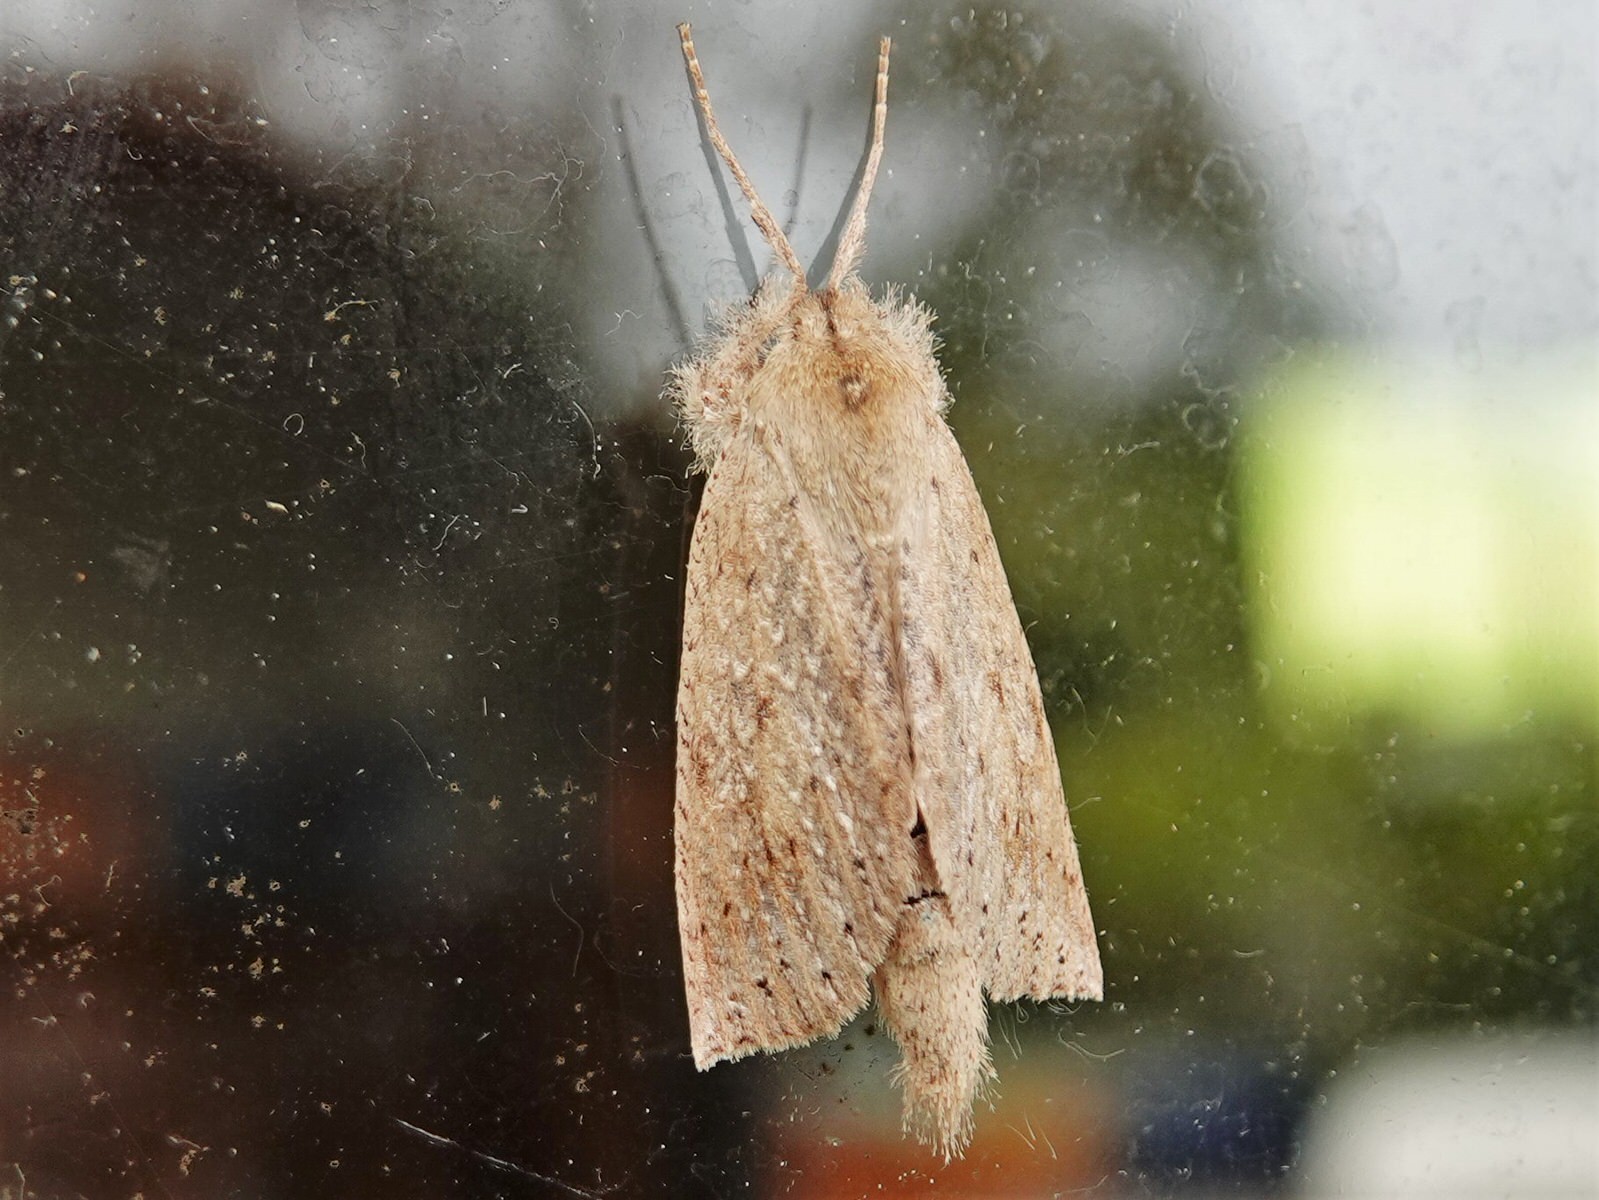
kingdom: Animalia
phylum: Arthropoda
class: Insecta
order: Lepidoptera
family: Geometridae
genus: Declana
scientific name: Declana leptomera
